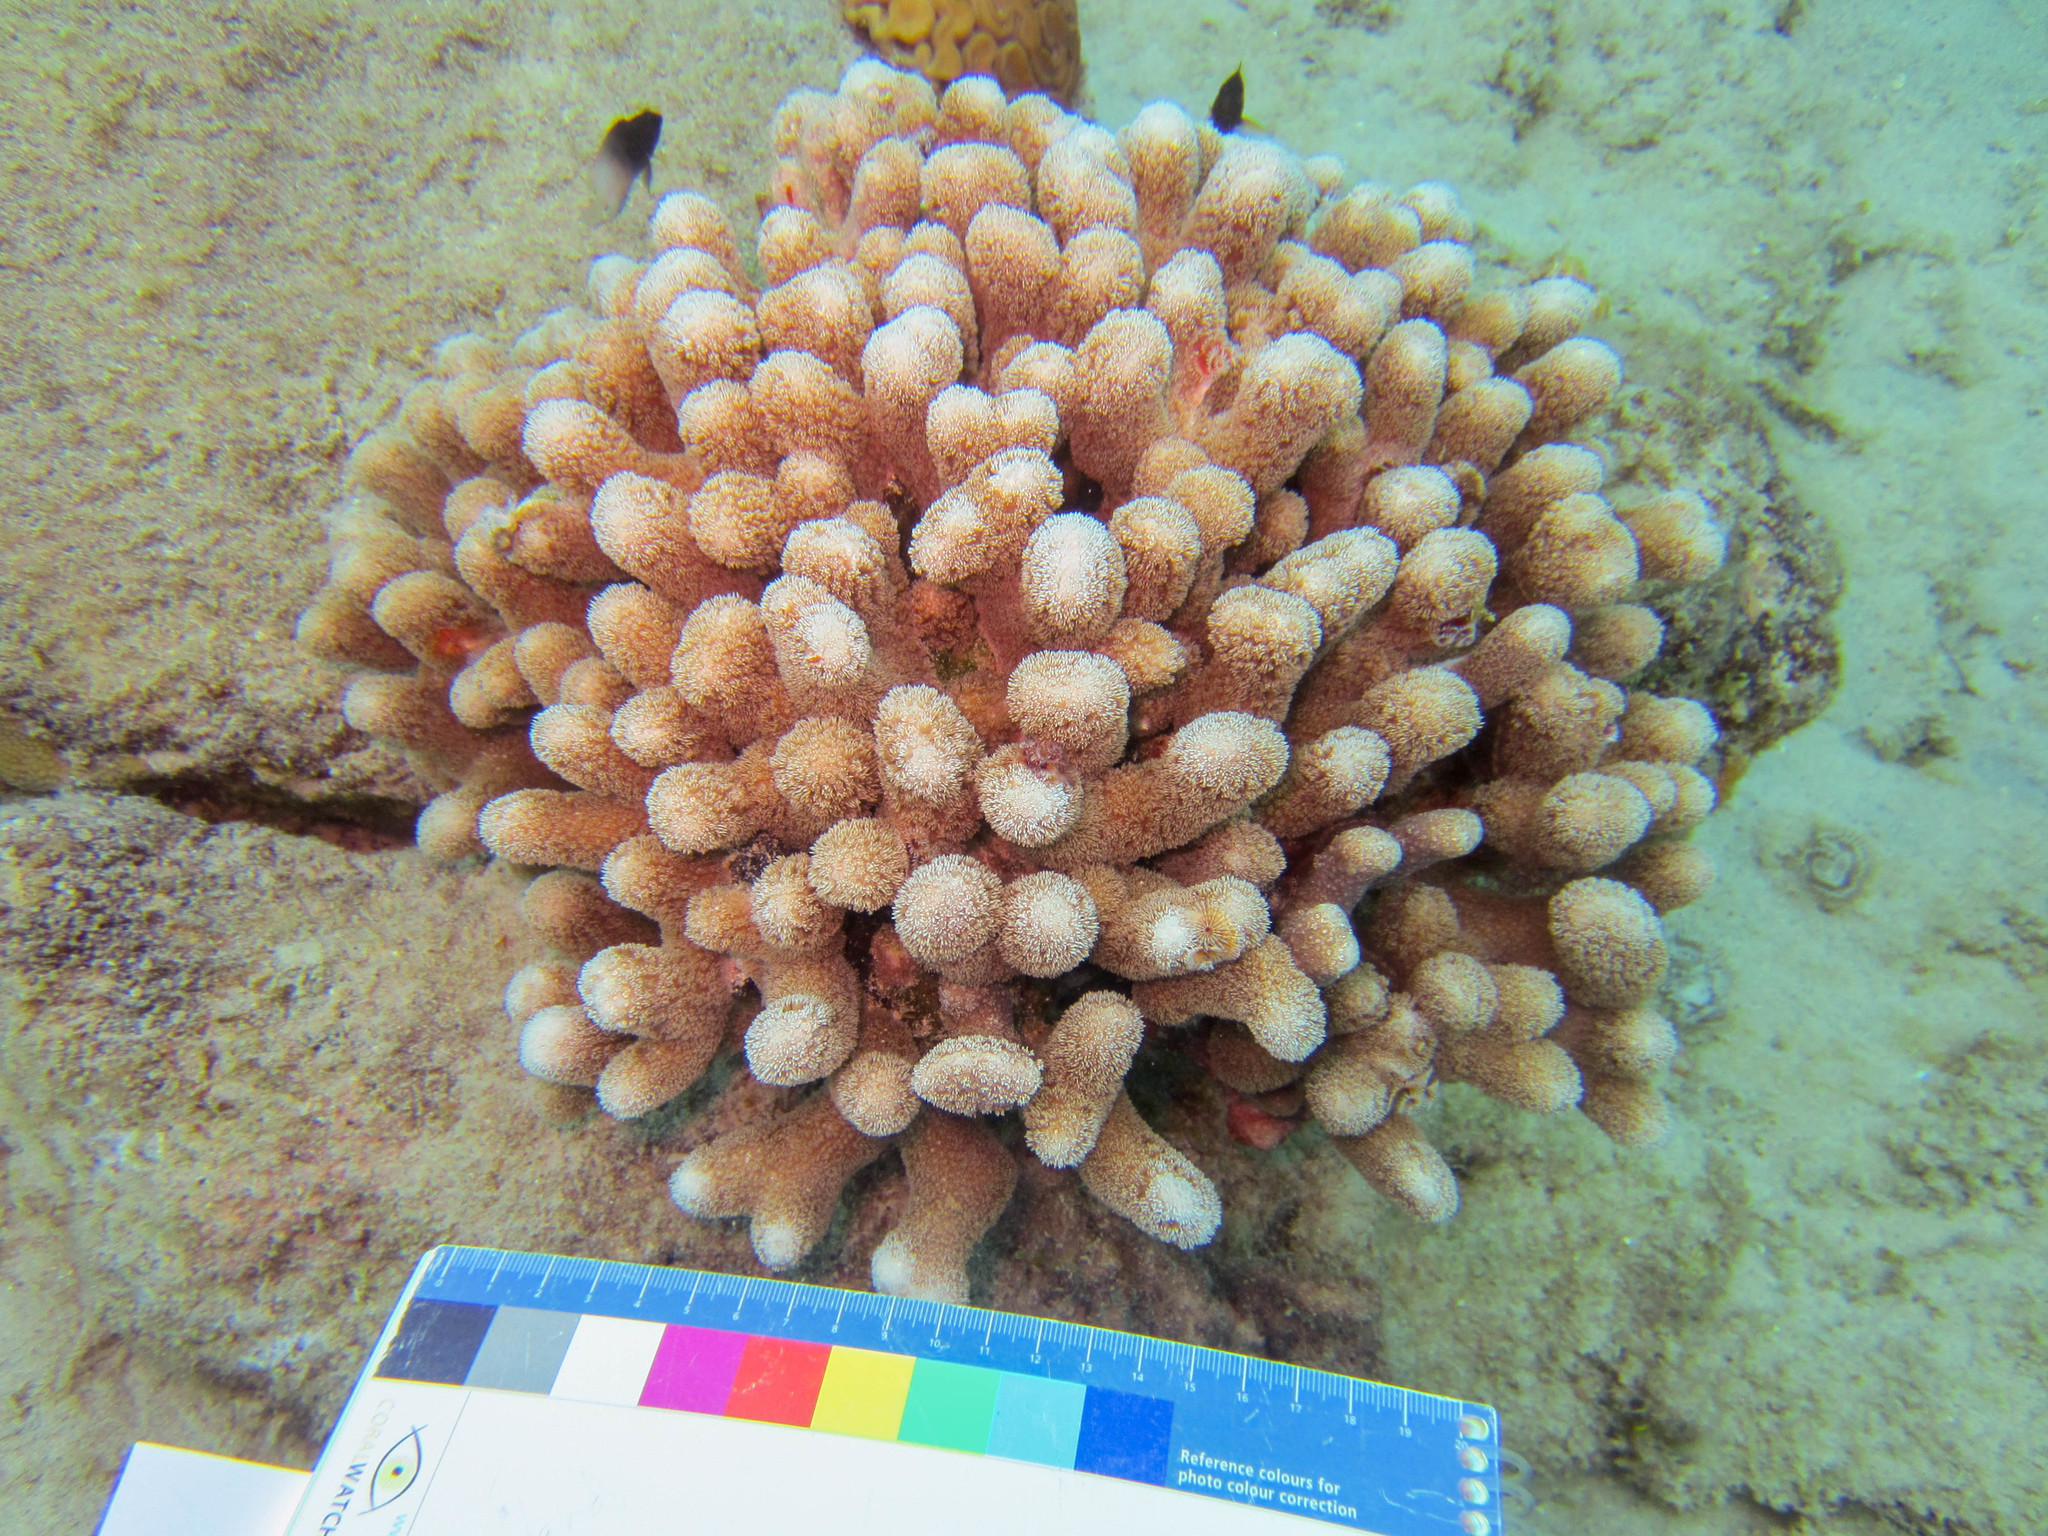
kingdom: Animalia
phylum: Cnidaria
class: Anthozoa
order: Scleractinia
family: Poritidae
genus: Porites
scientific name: Porites porites
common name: Finger coral
